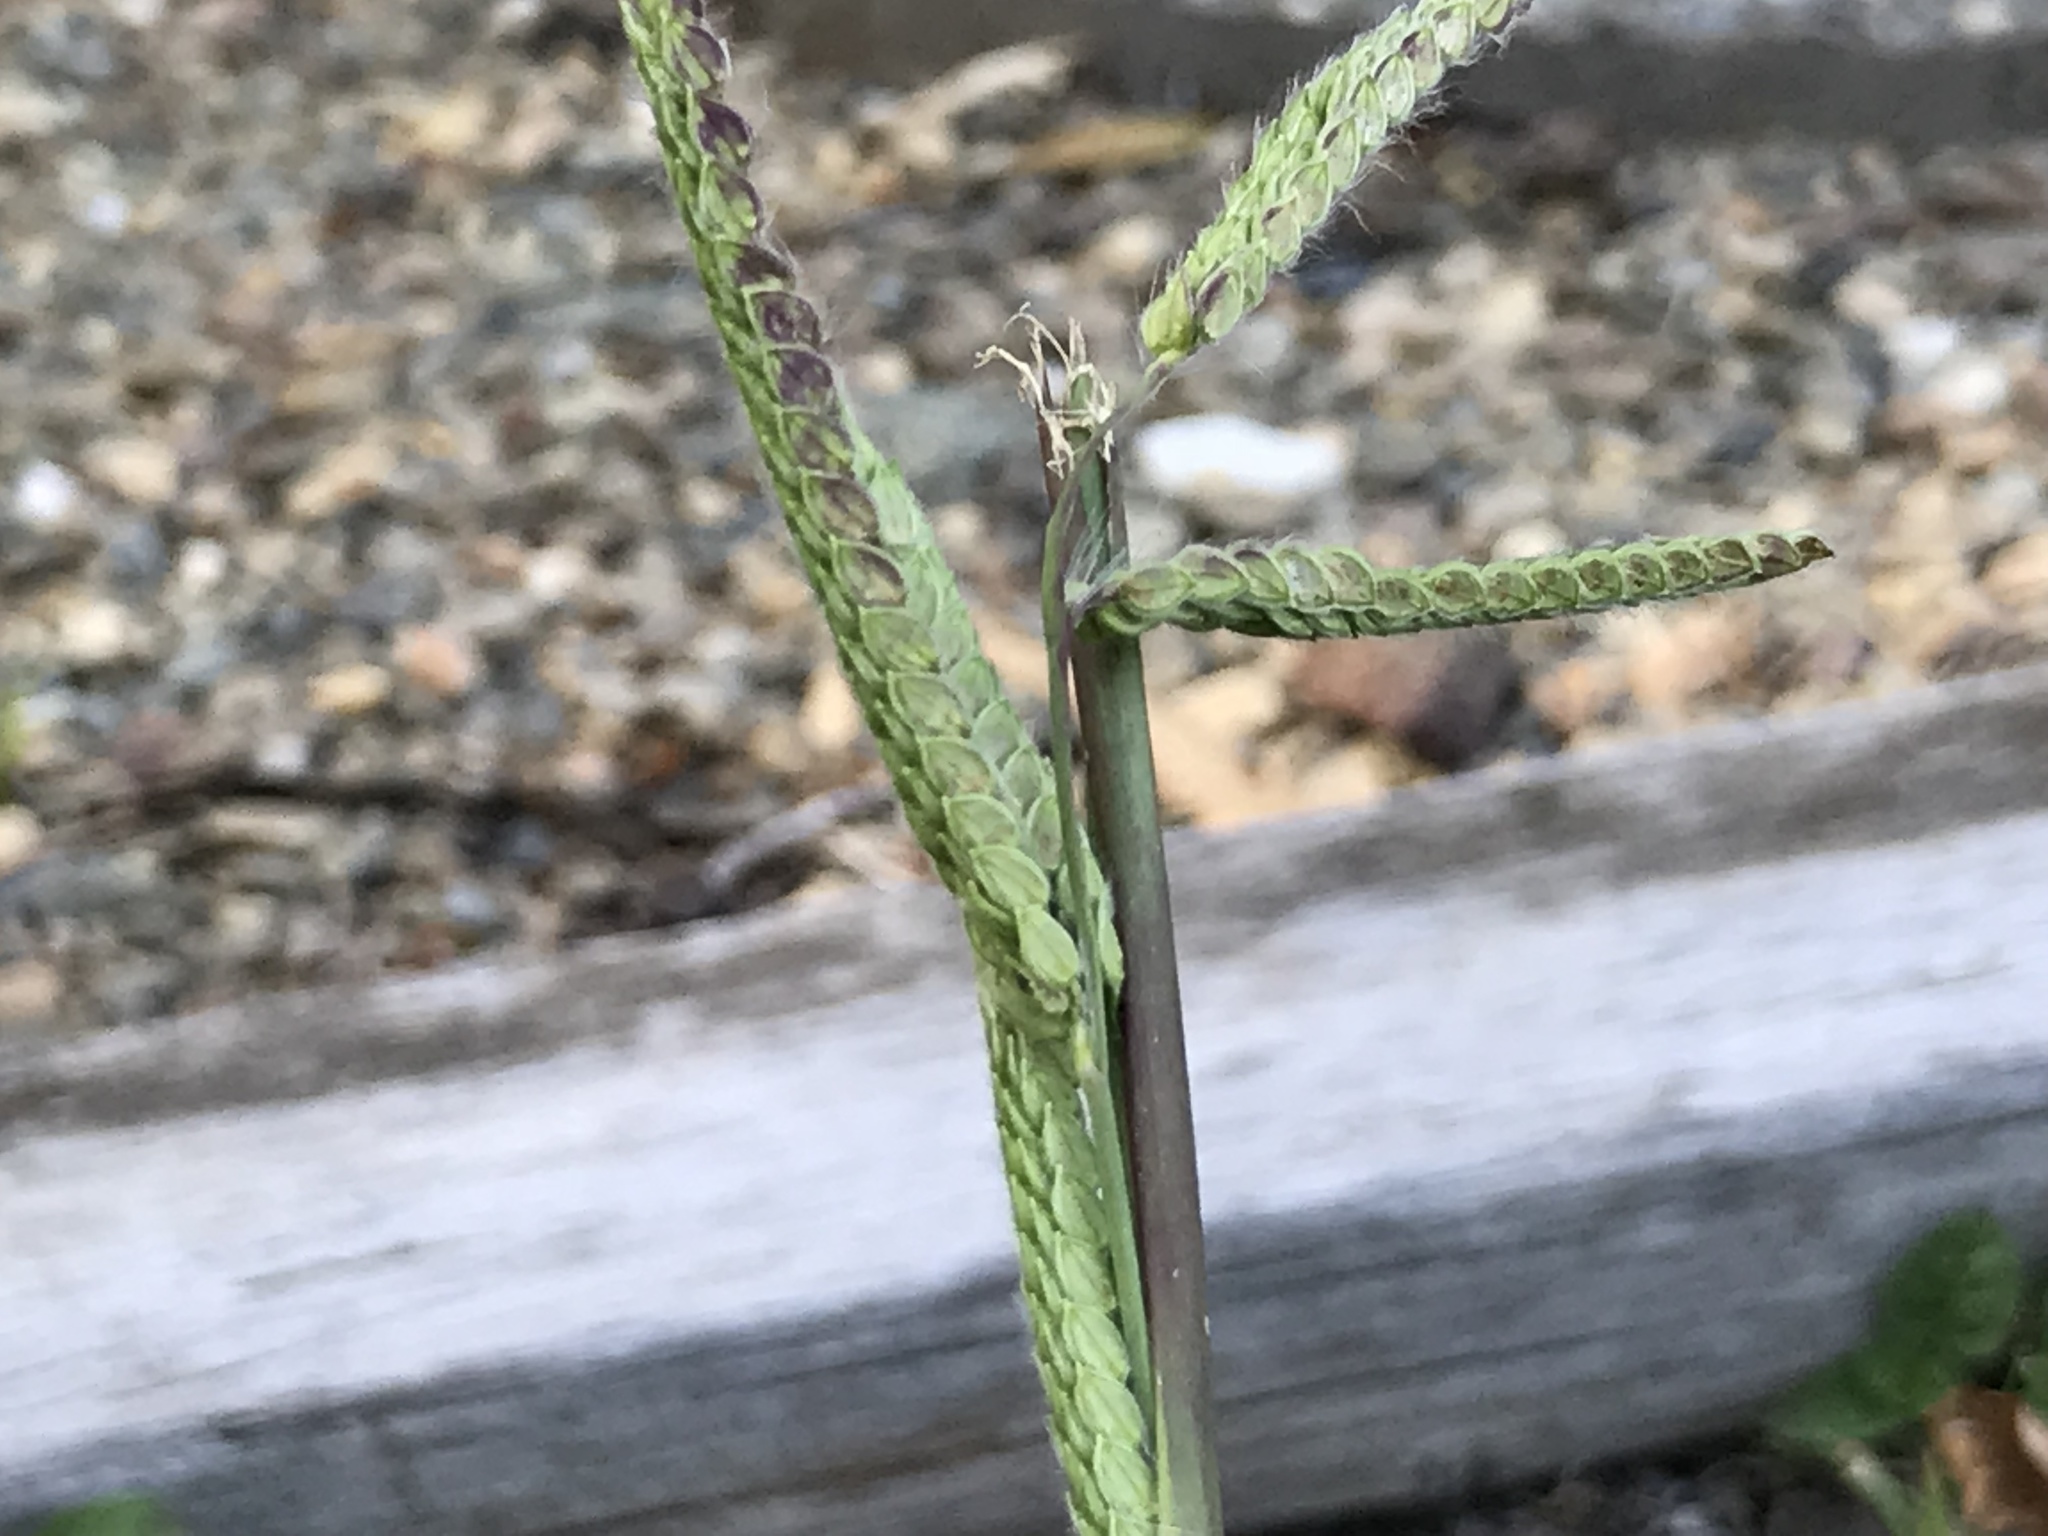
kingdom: Plantae
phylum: Tracheophyta
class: Liliopsida
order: Poales
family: Poaceae
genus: Paspalum
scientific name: Paspalum dilatatum
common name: Dallisgrass
